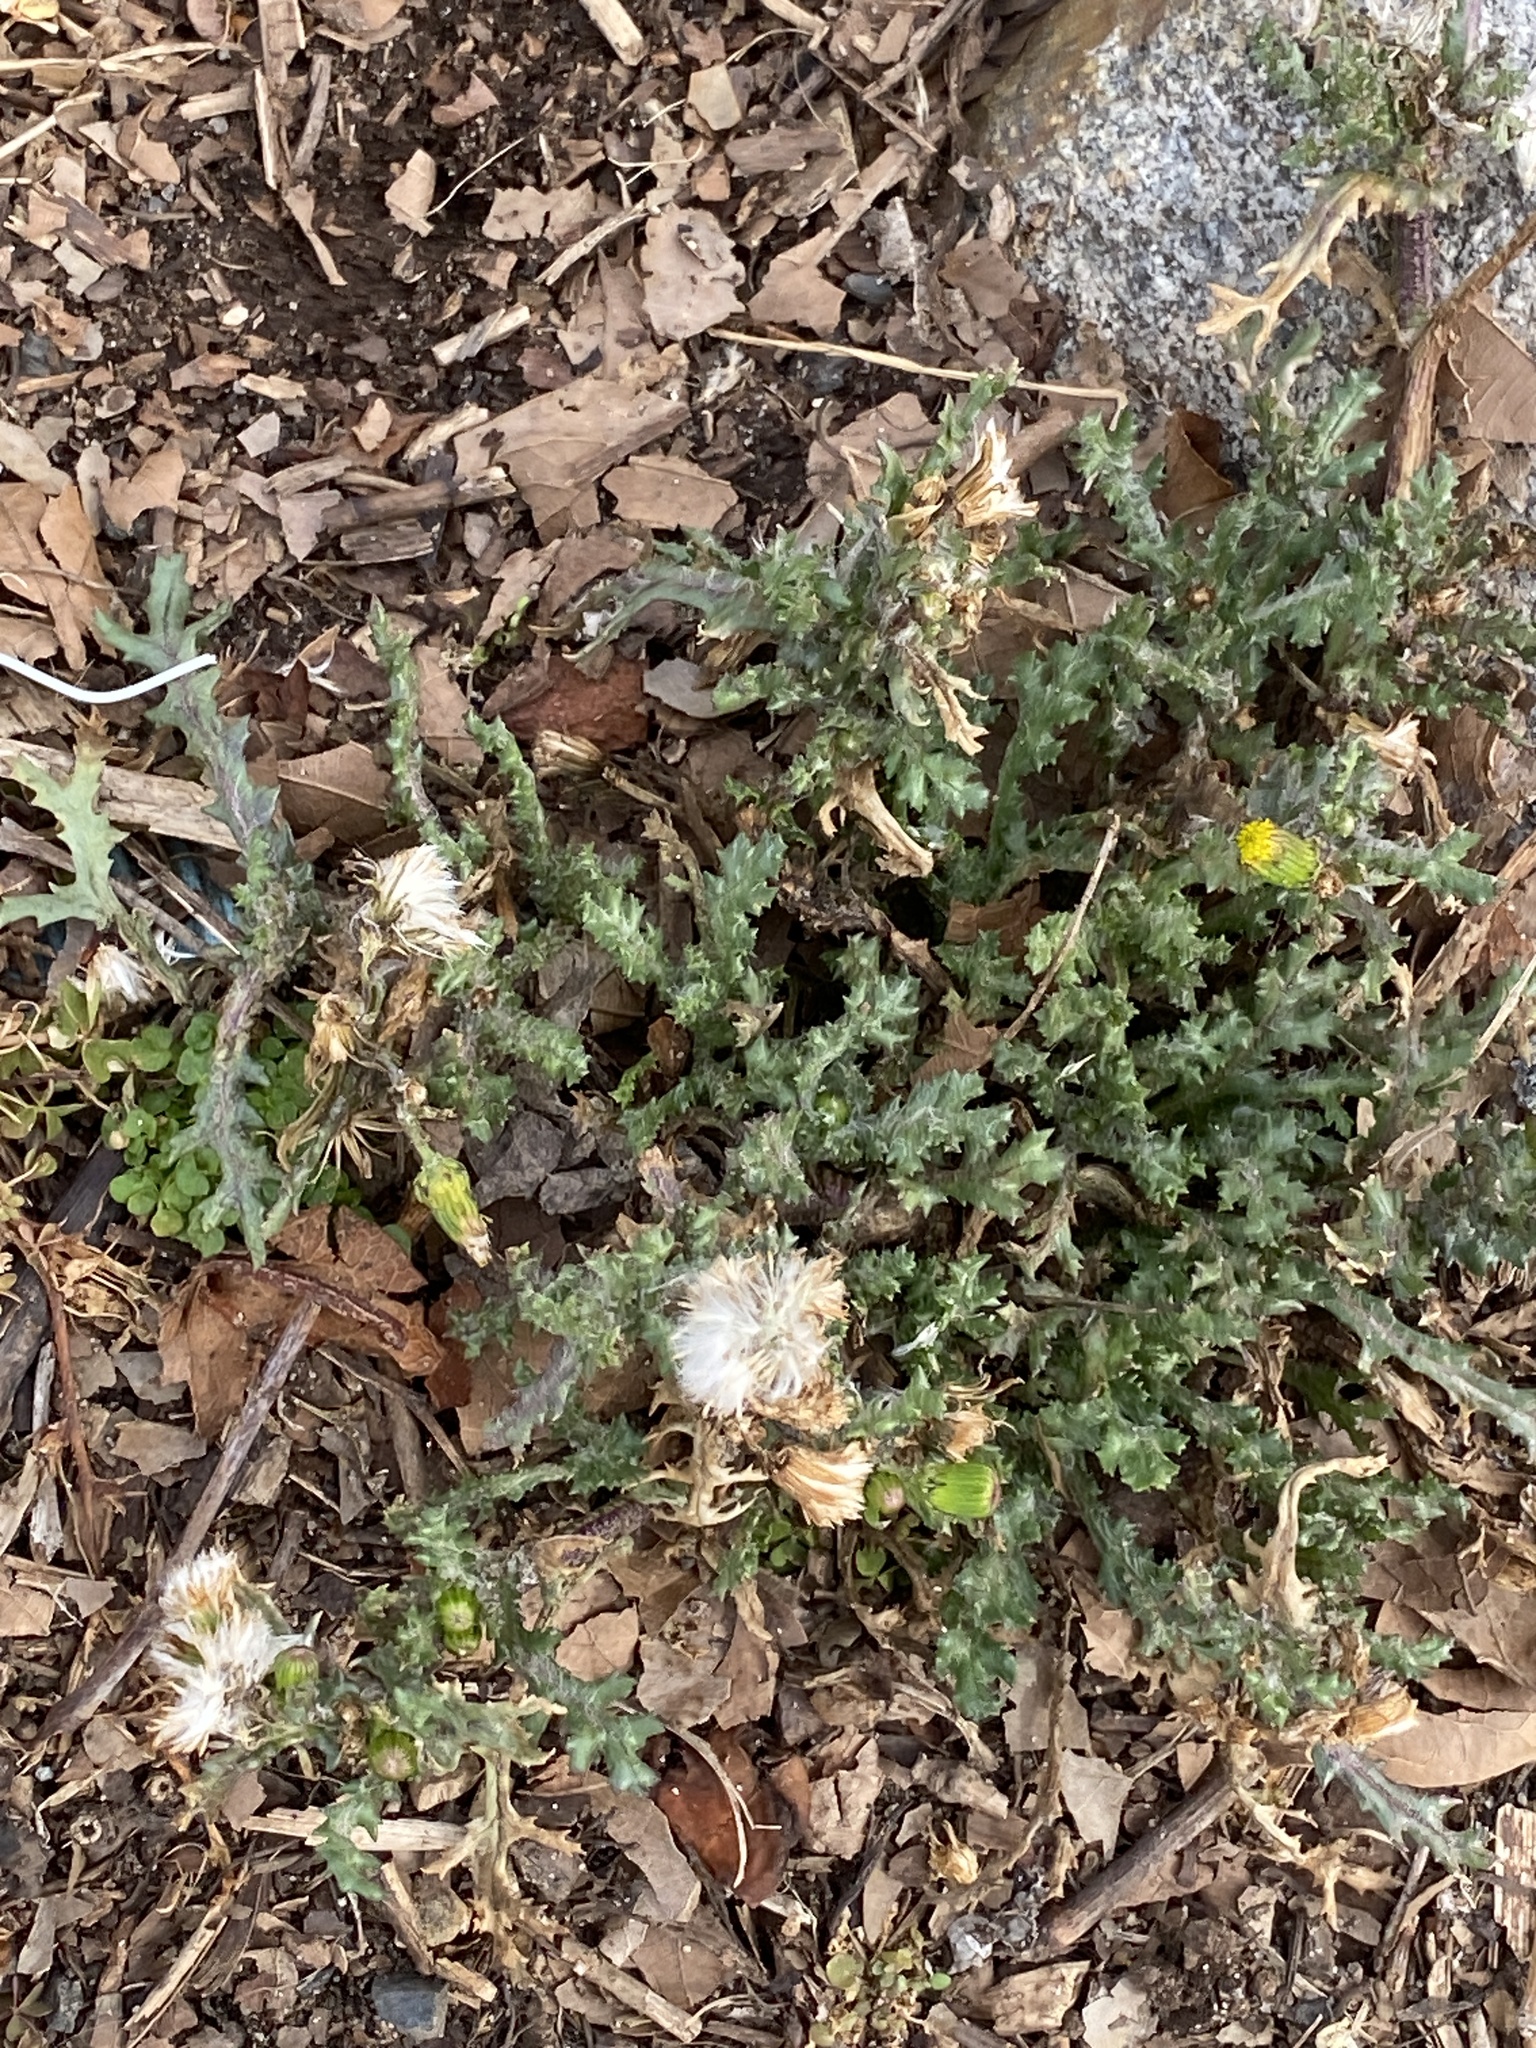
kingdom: Plantae
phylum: Tracheophyta
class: Magnoliopsida
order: Asterales
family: Asteraceae
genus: Senecio
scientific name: Senecio vulgaris
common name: Old-man-in-the-spring
